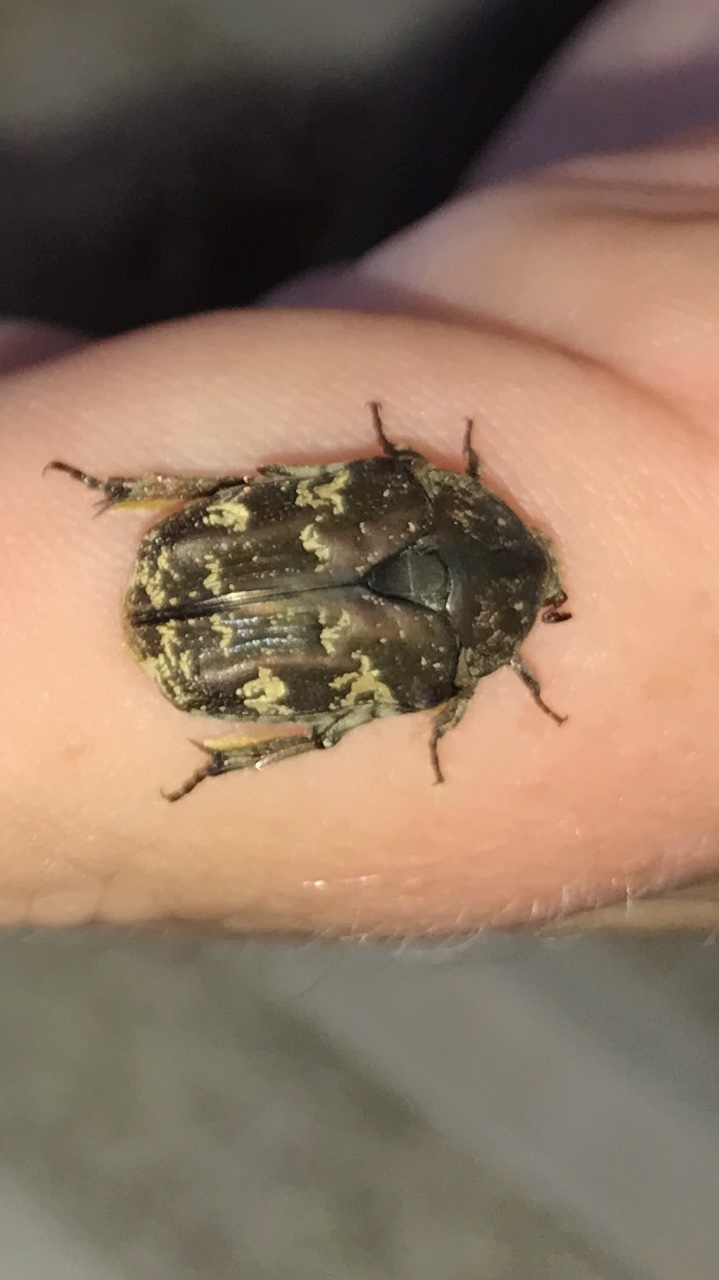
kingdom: Animalia
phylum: Arthropoda
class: Insecta
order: Coleoptera
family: Scarabaeidae
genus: Protaetia
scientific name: Protaetia fusca
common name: Mango flower beetle
